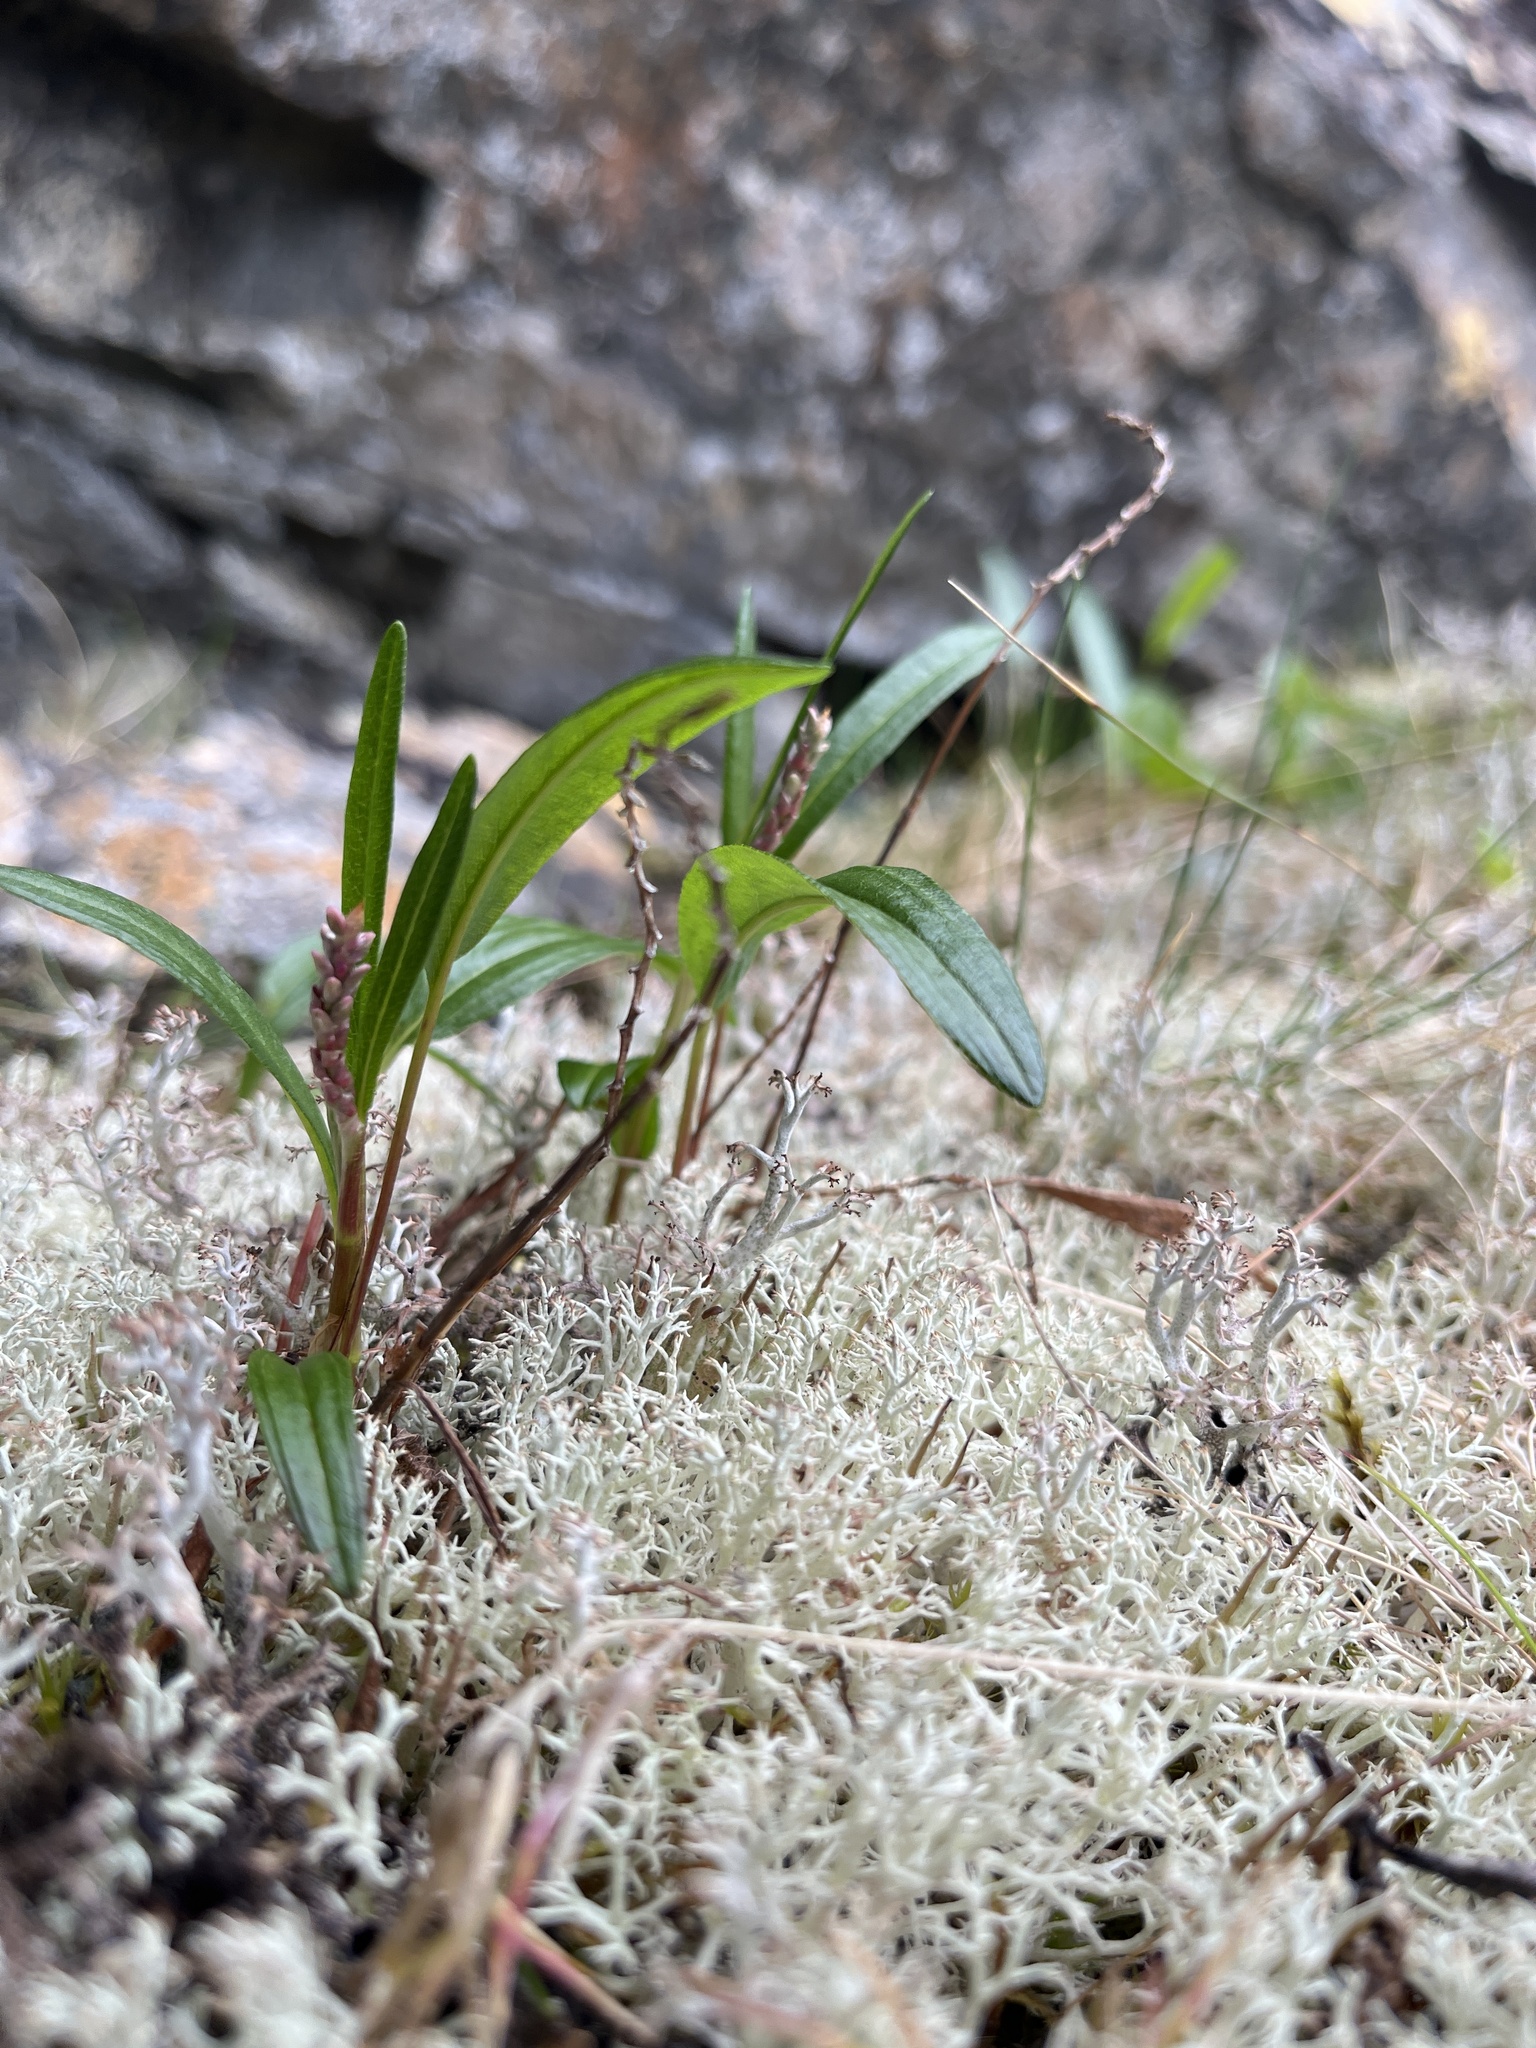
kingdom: Plantae
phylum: Tracheophyta
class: Magnoliopsida
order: Caryophyllales
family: Polygonaceae
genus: Bistorta
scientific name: Bistorta vivipara
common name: Alpine bistort
